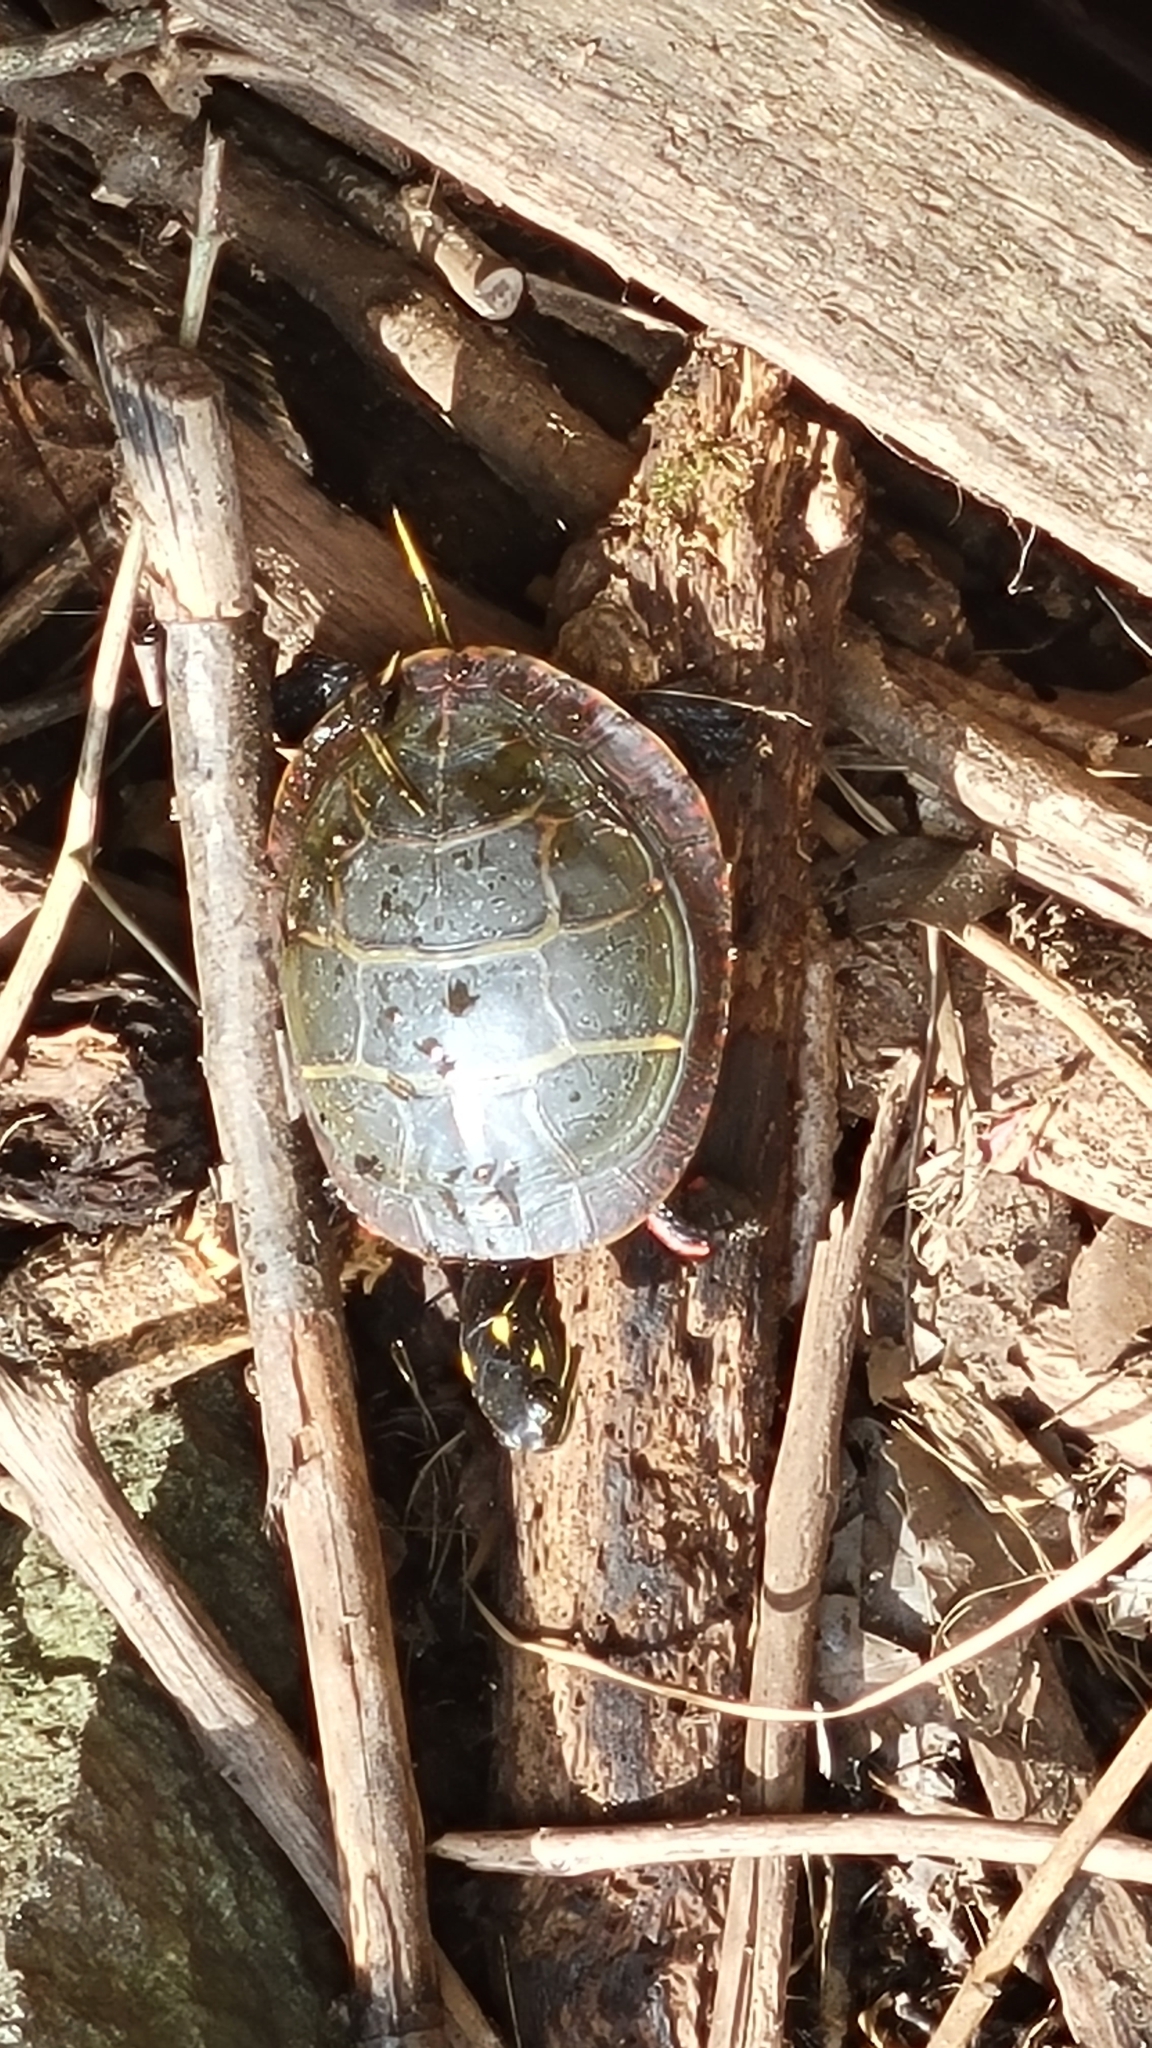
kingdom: Animalia
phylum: Chordata
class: Testudines
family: Emydidae
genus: Chrysemys
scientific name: Chrysemys picta
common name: Painted turtle
